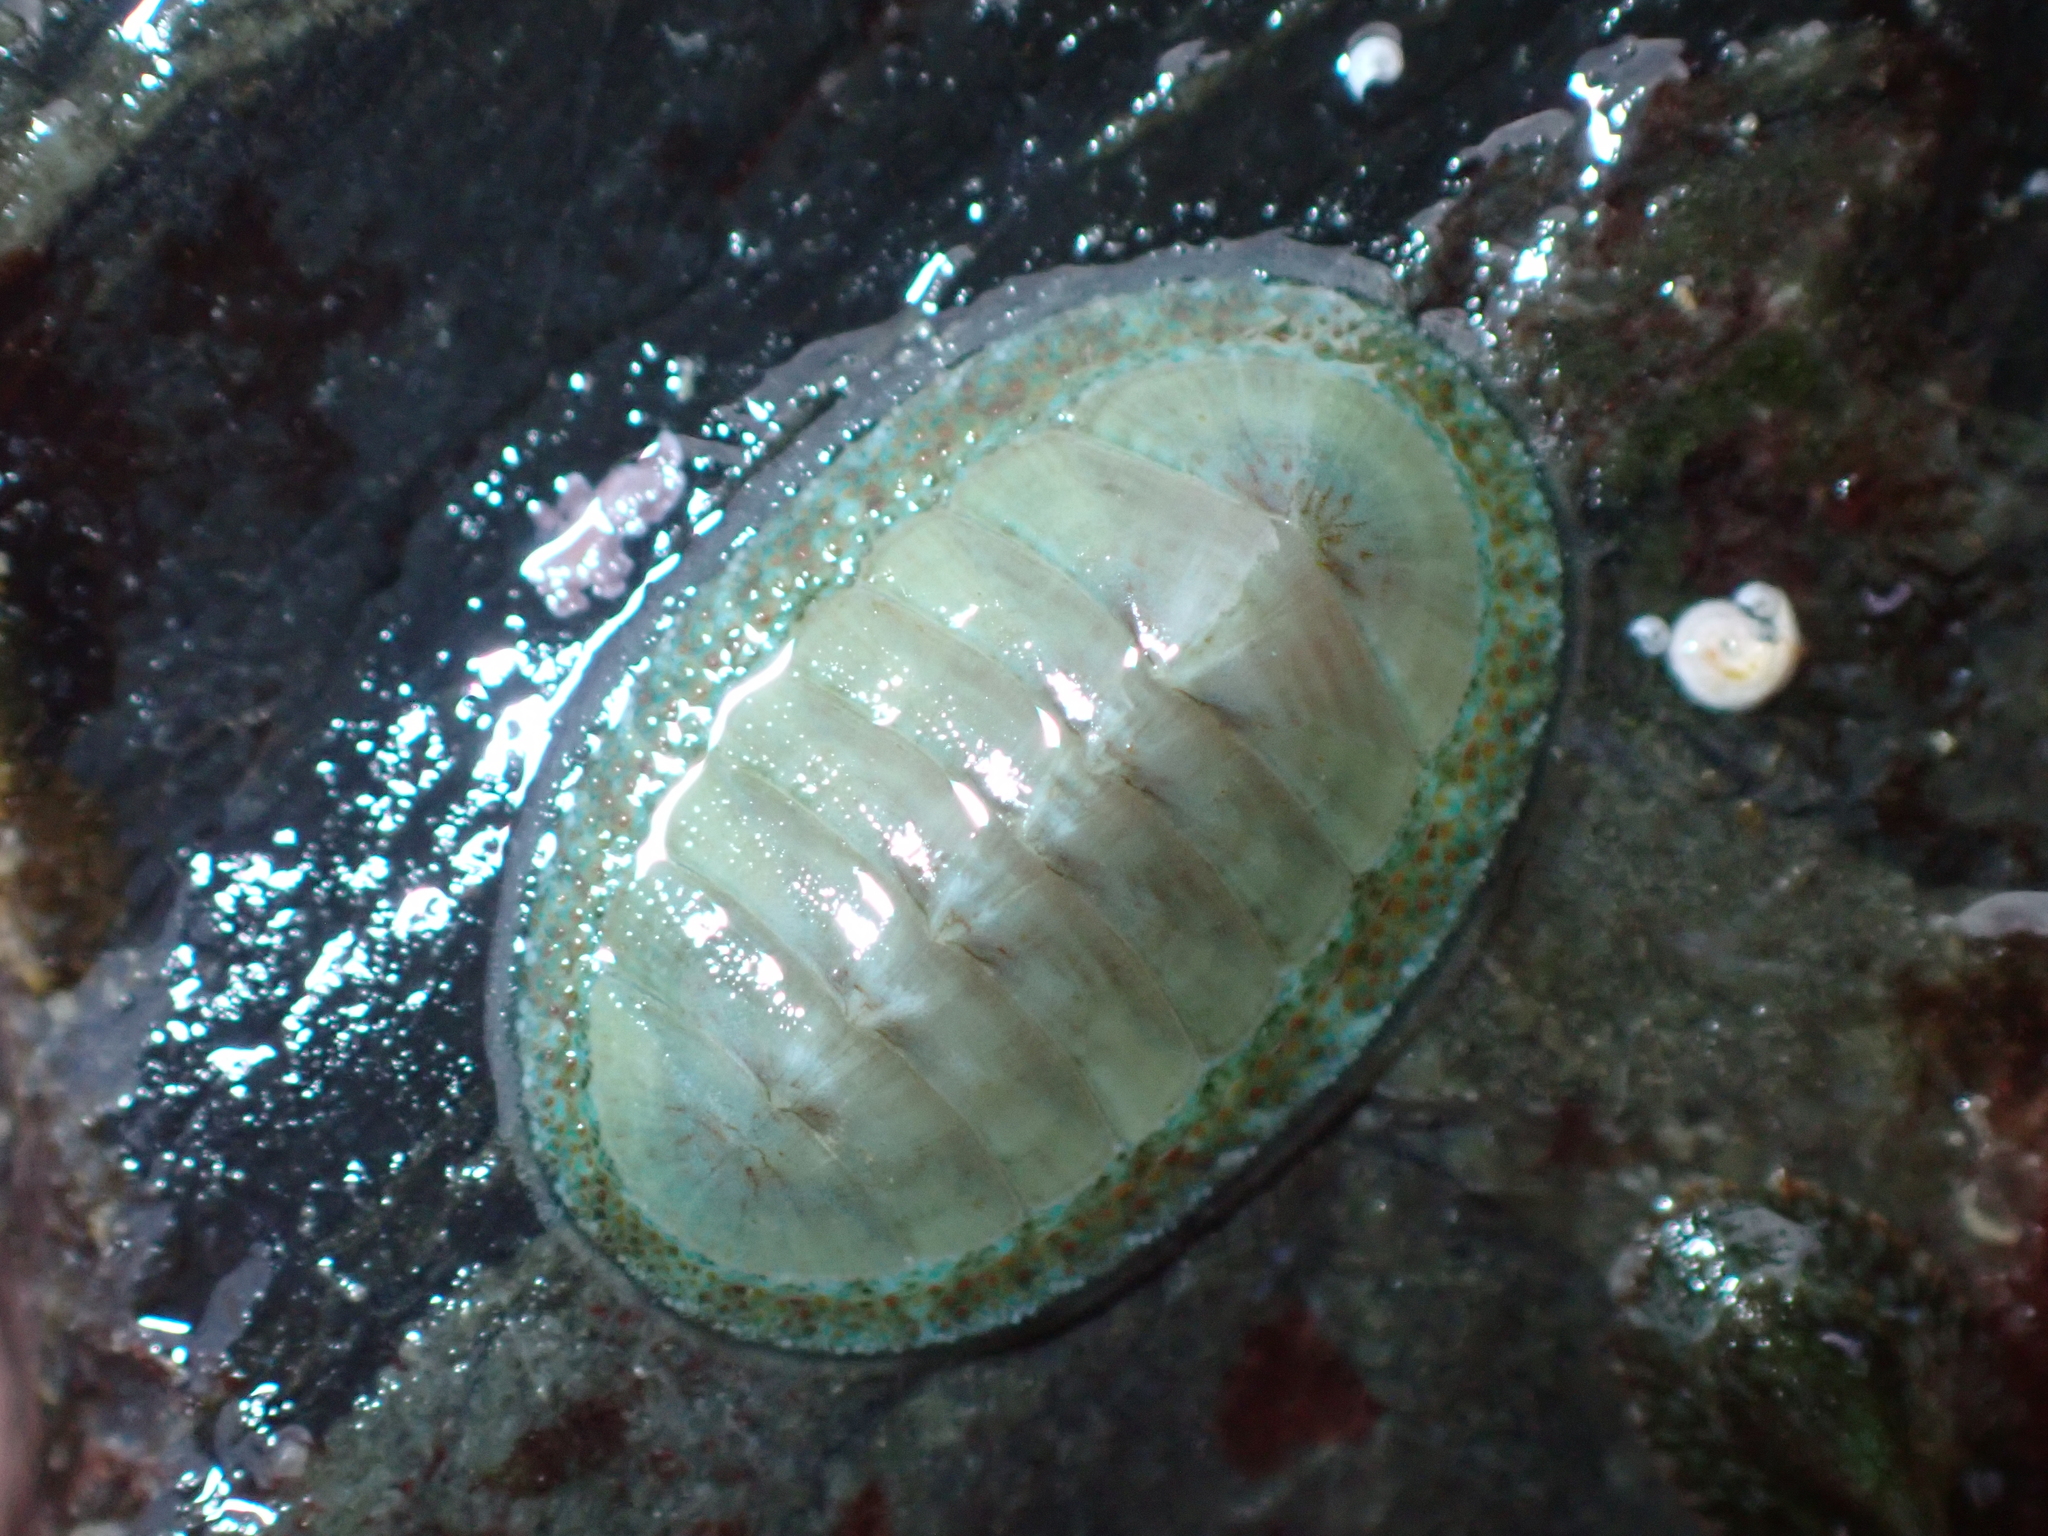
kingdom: Animalia
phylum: Mollusca
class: Polyplacophora
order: Chitonida
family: Chitonidae
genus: Chiton
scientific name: Chiton glaucus
